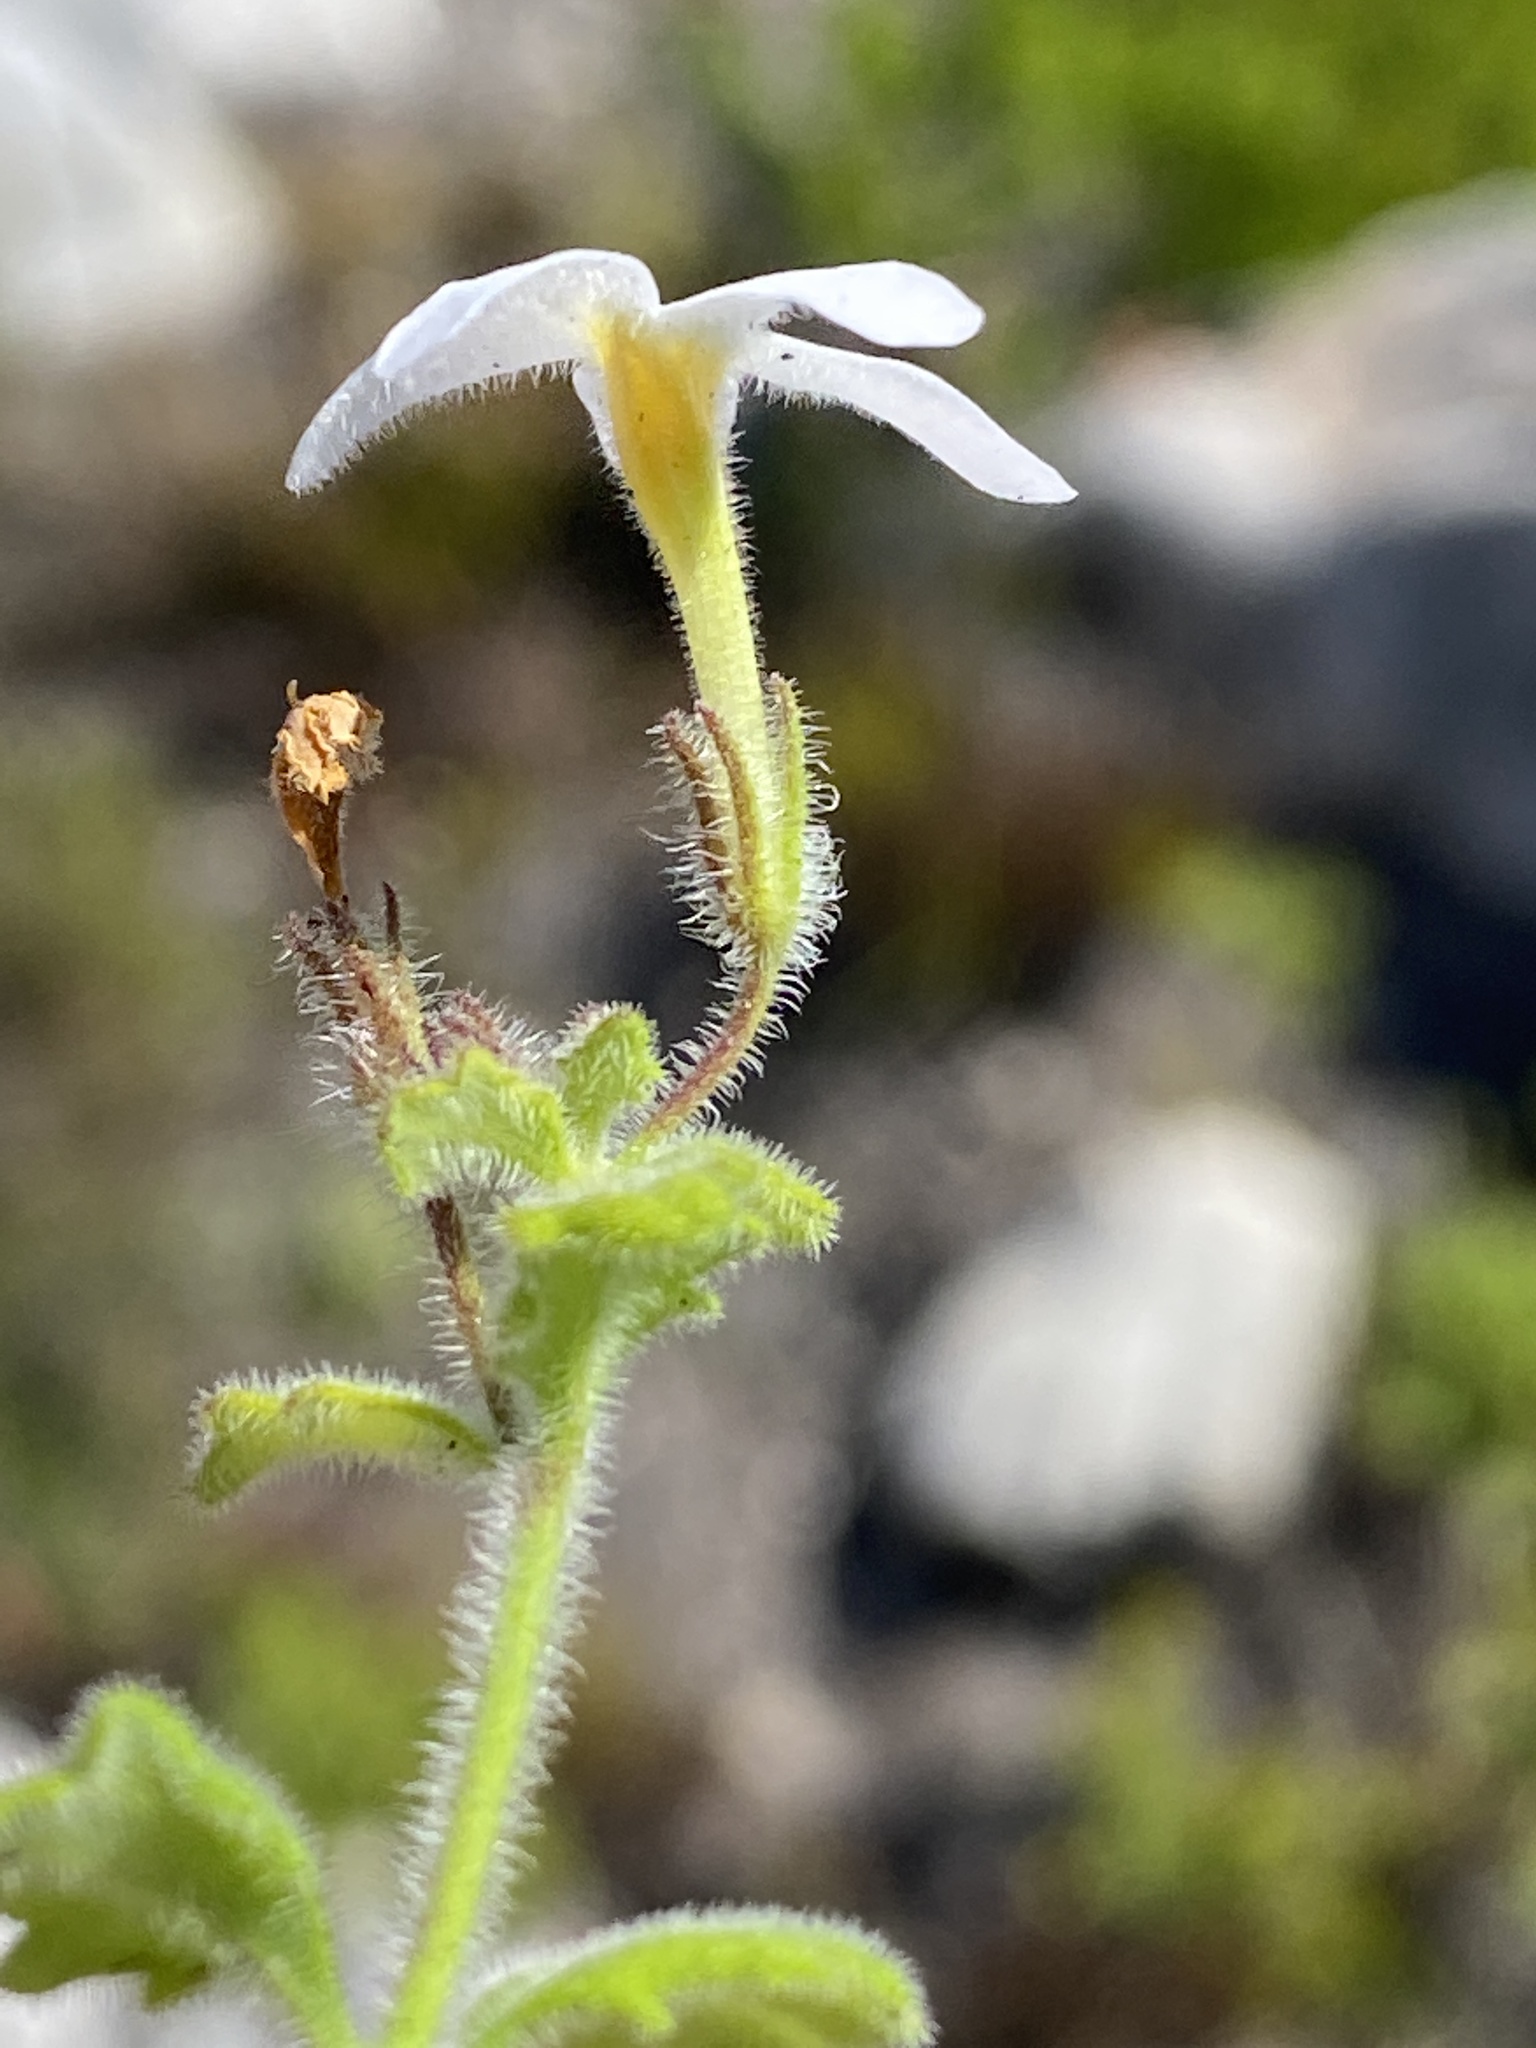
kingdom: Plantae
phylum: Tracheophyta
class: Magnoliopsida
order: Lamiales
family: Scrophulariaceae
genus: Chaenostoma
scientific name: Chaenostoma hispidum
